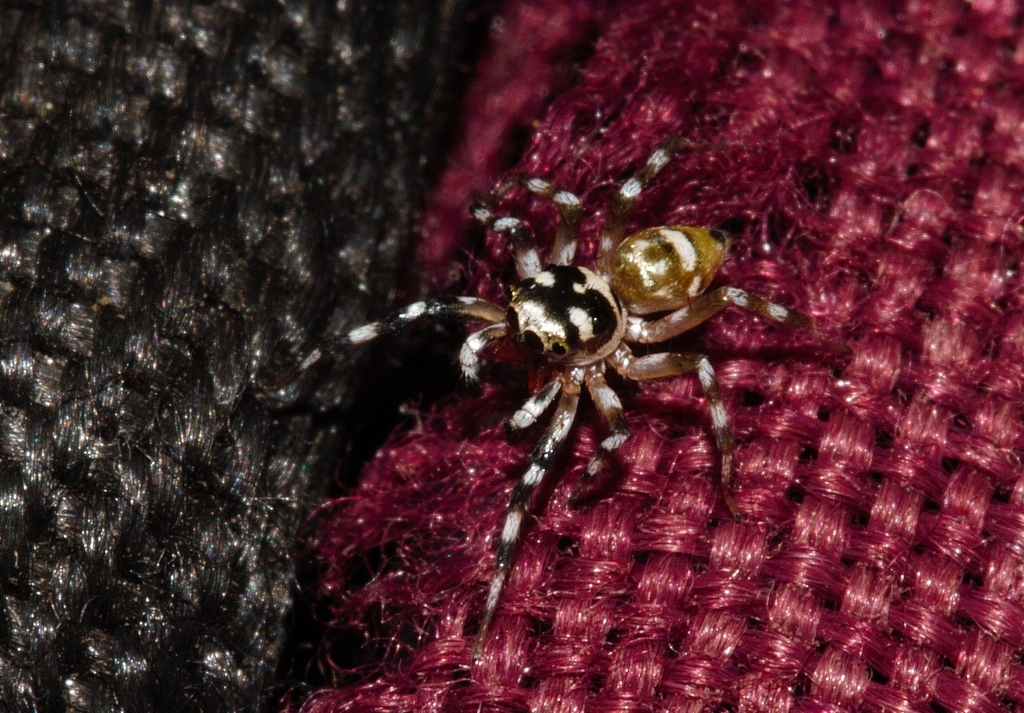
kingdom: Animalia
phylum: Arthropoda
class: Arachnida
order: Araneae
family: Salticidae
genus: Phintella
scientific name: Phintella aequipes
